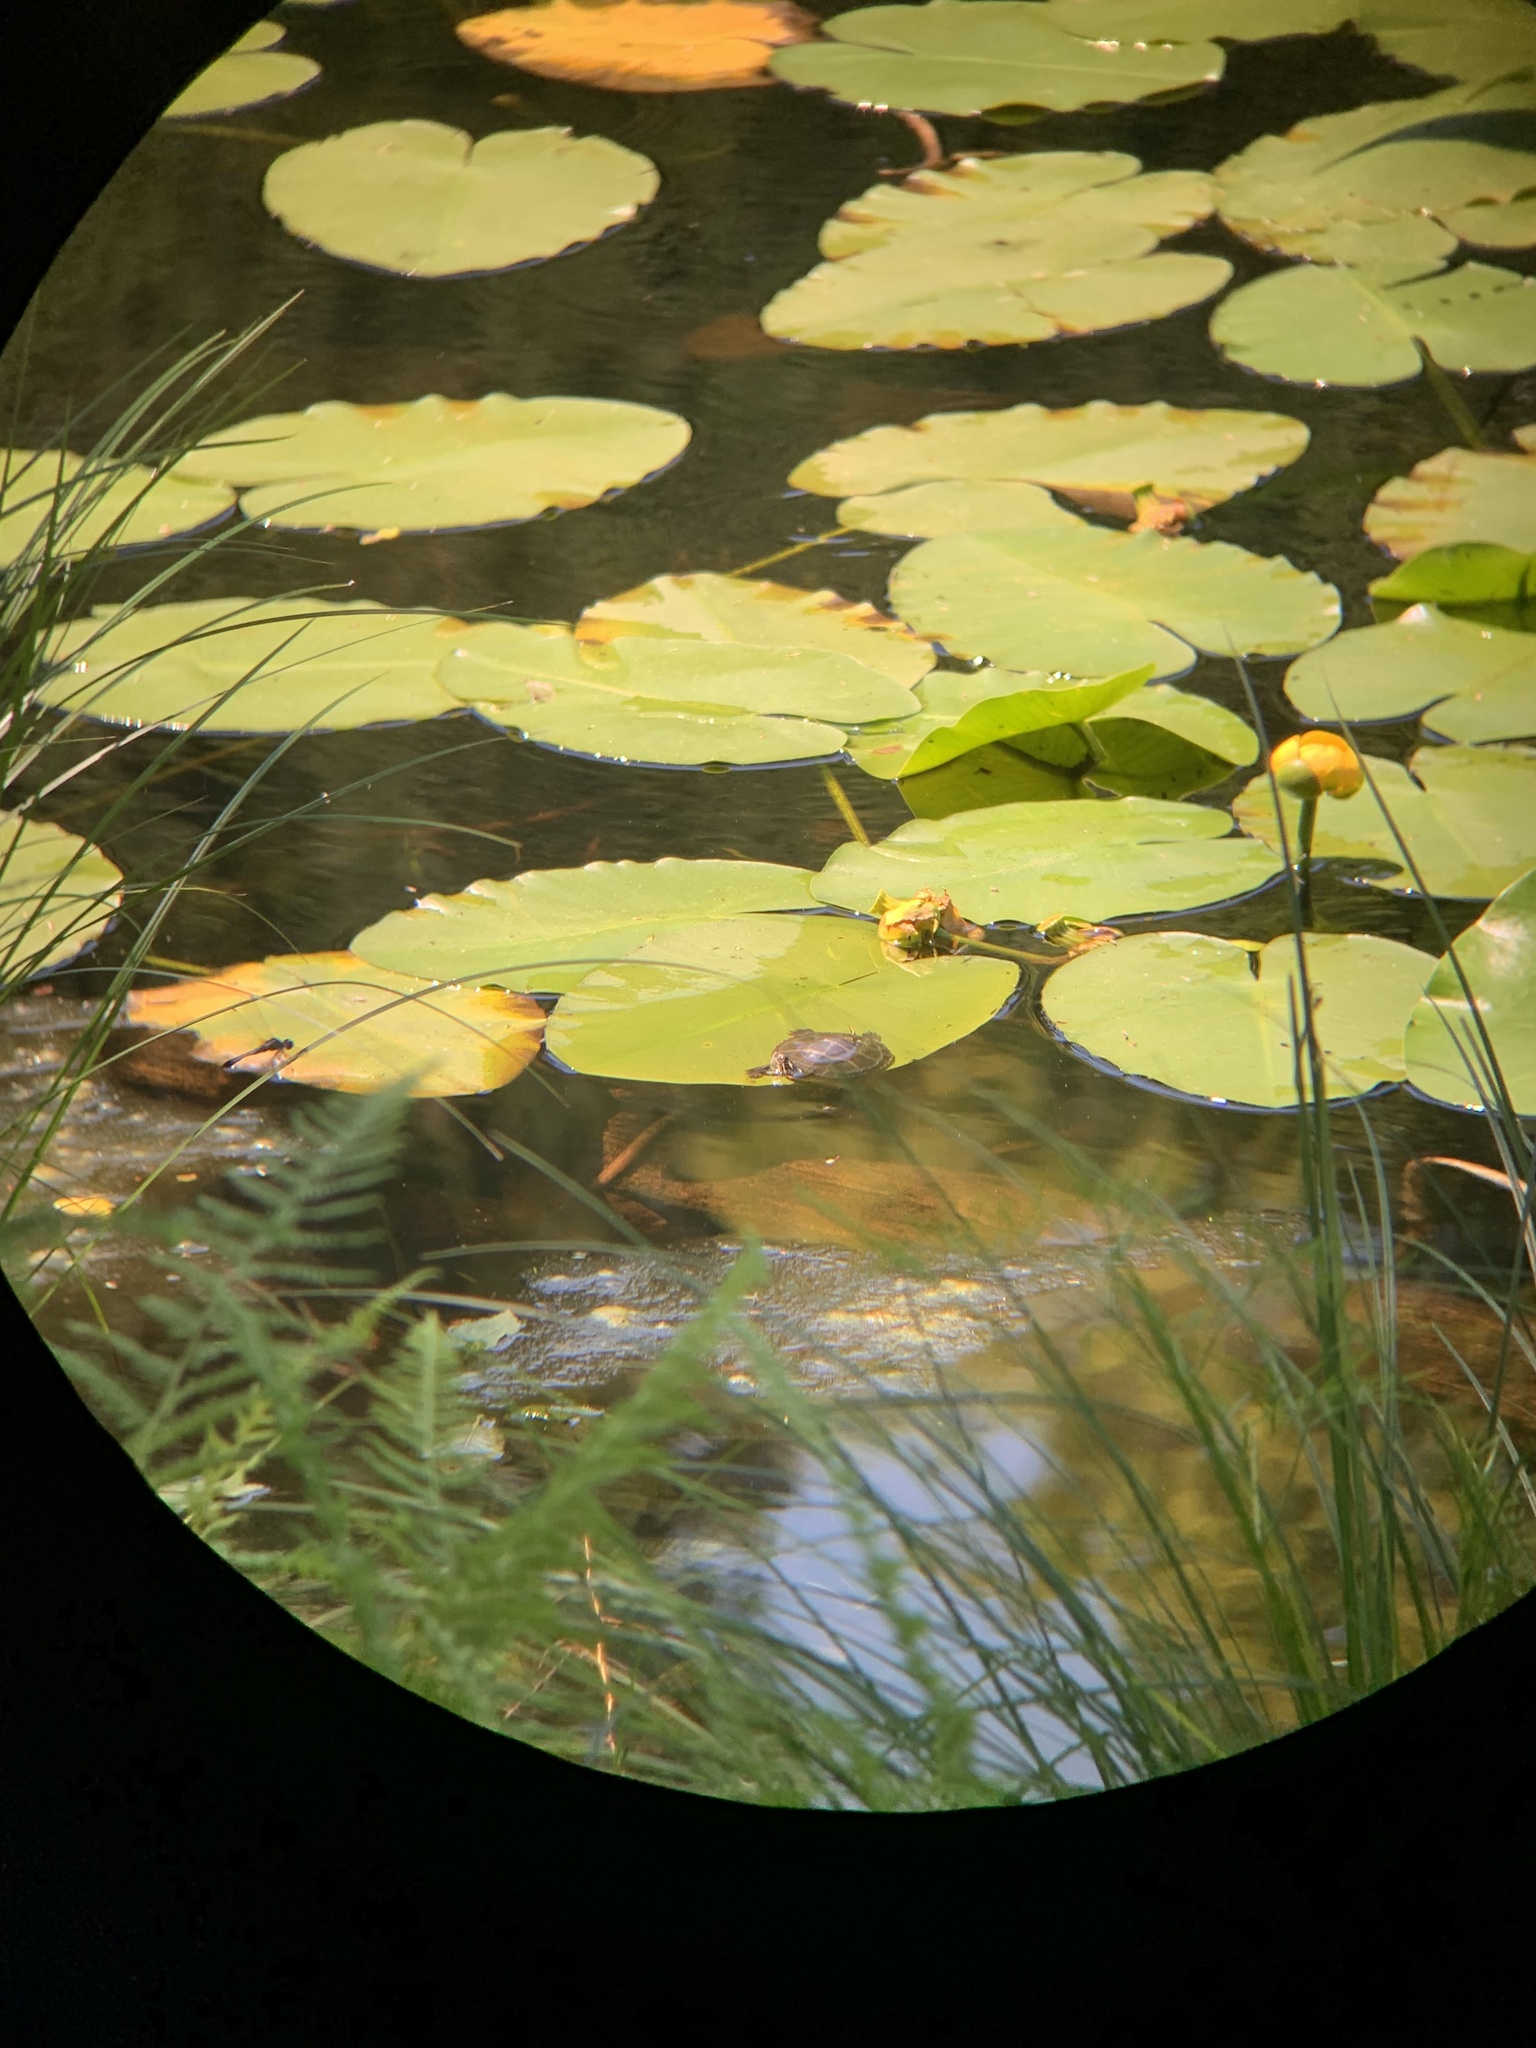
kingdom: Animalia
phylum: Chordata
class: Testudines
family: Emydidae
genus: Chrysemys
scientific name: Chrysemys picta
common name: Painted turtle
